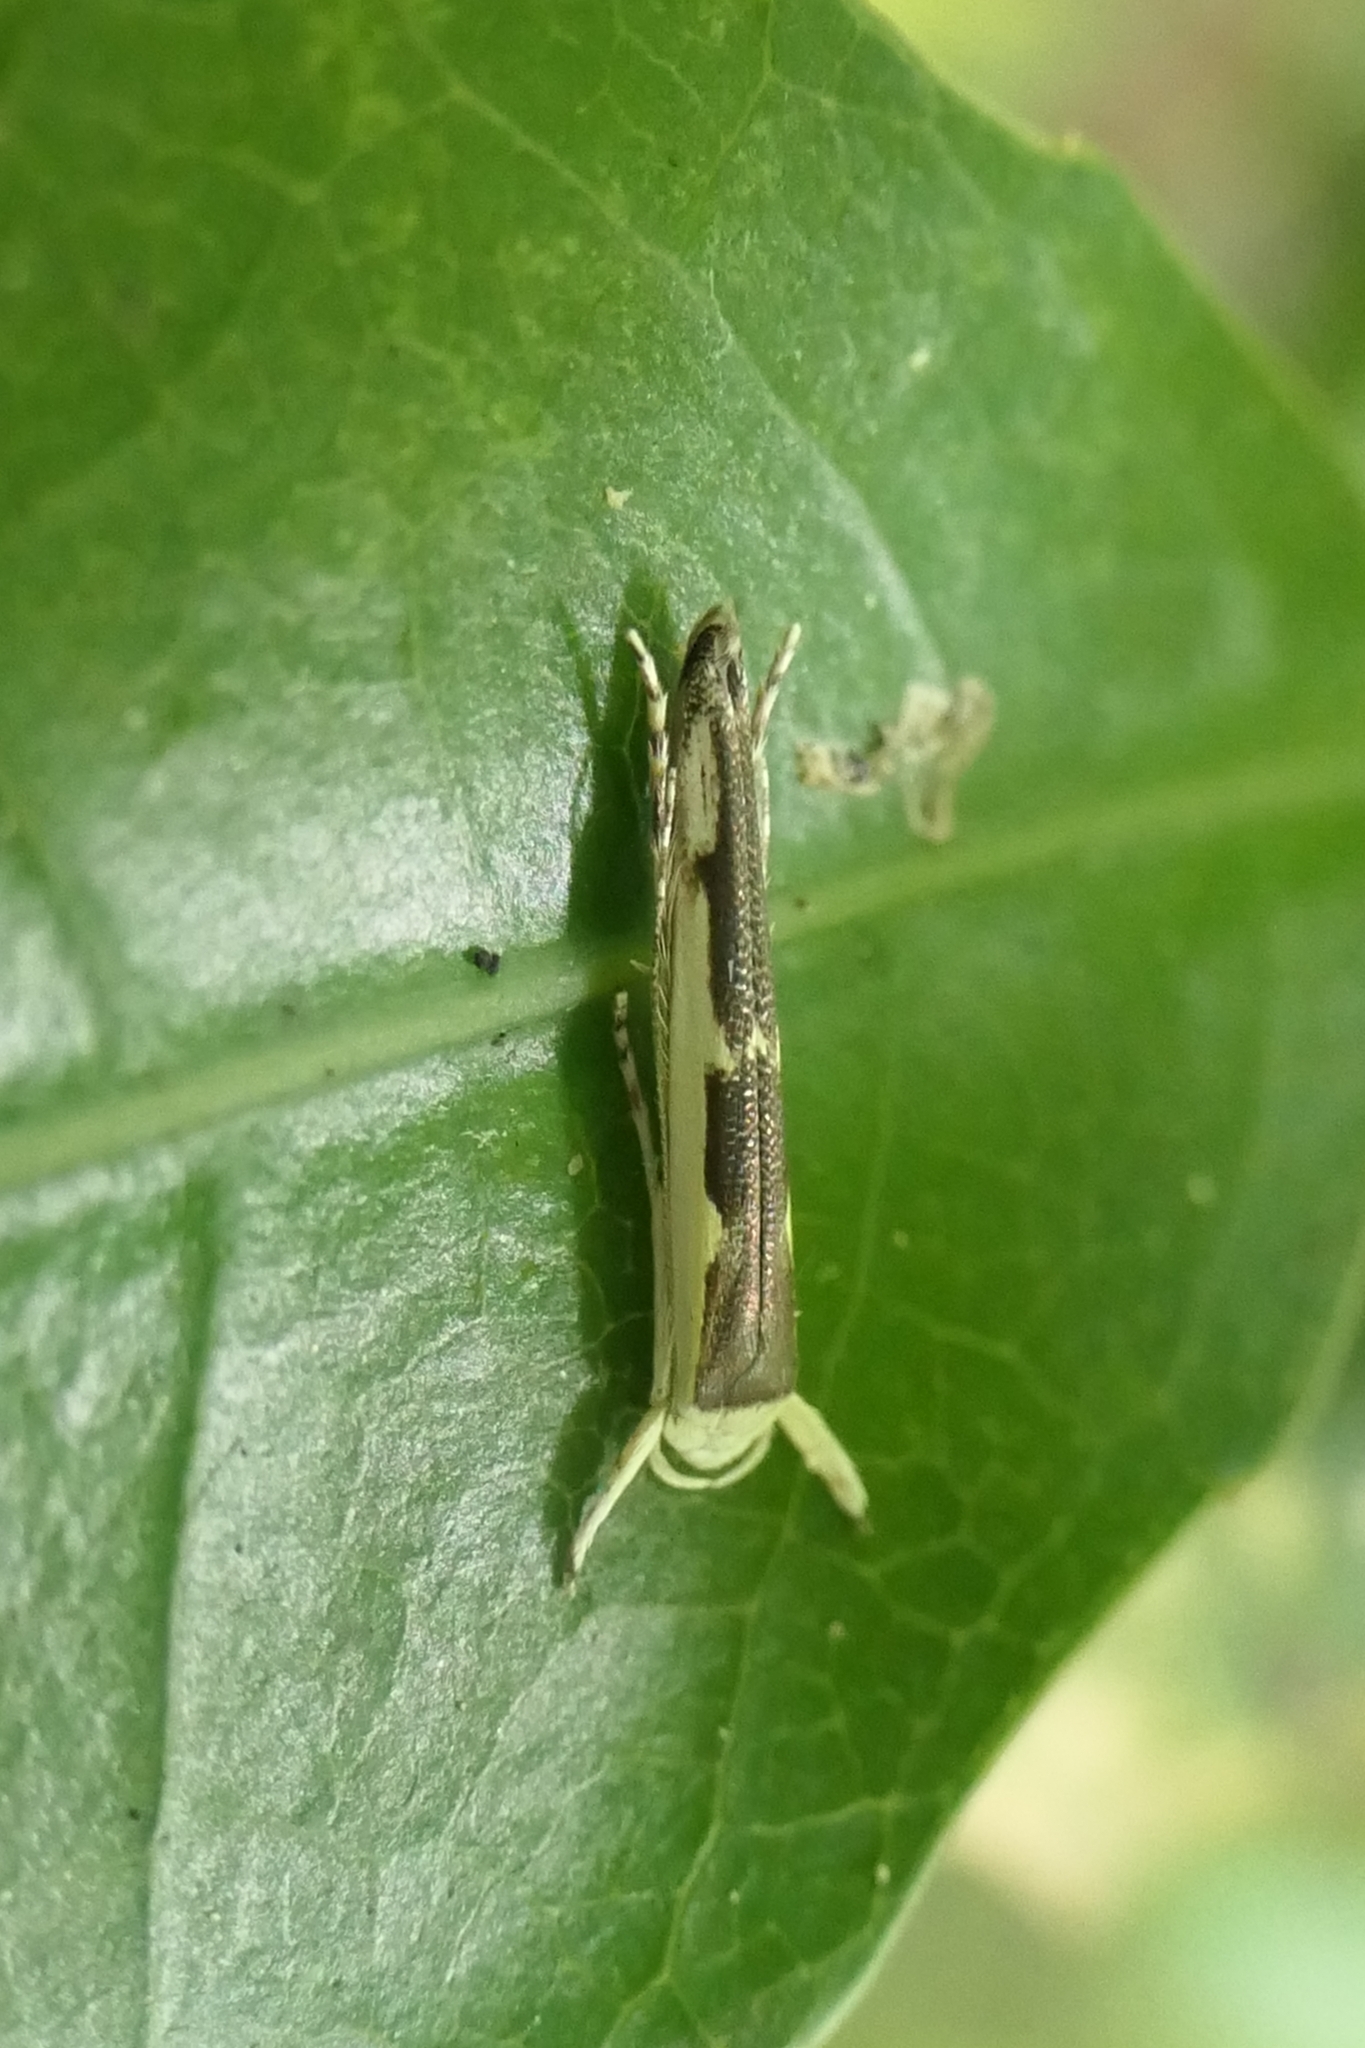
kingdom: Animalia
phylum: Arthropoda
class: Insecta
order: Lepidoptera
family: Roeslerstammiidae
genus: Vanicela
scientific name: Vanicela disjunctella
